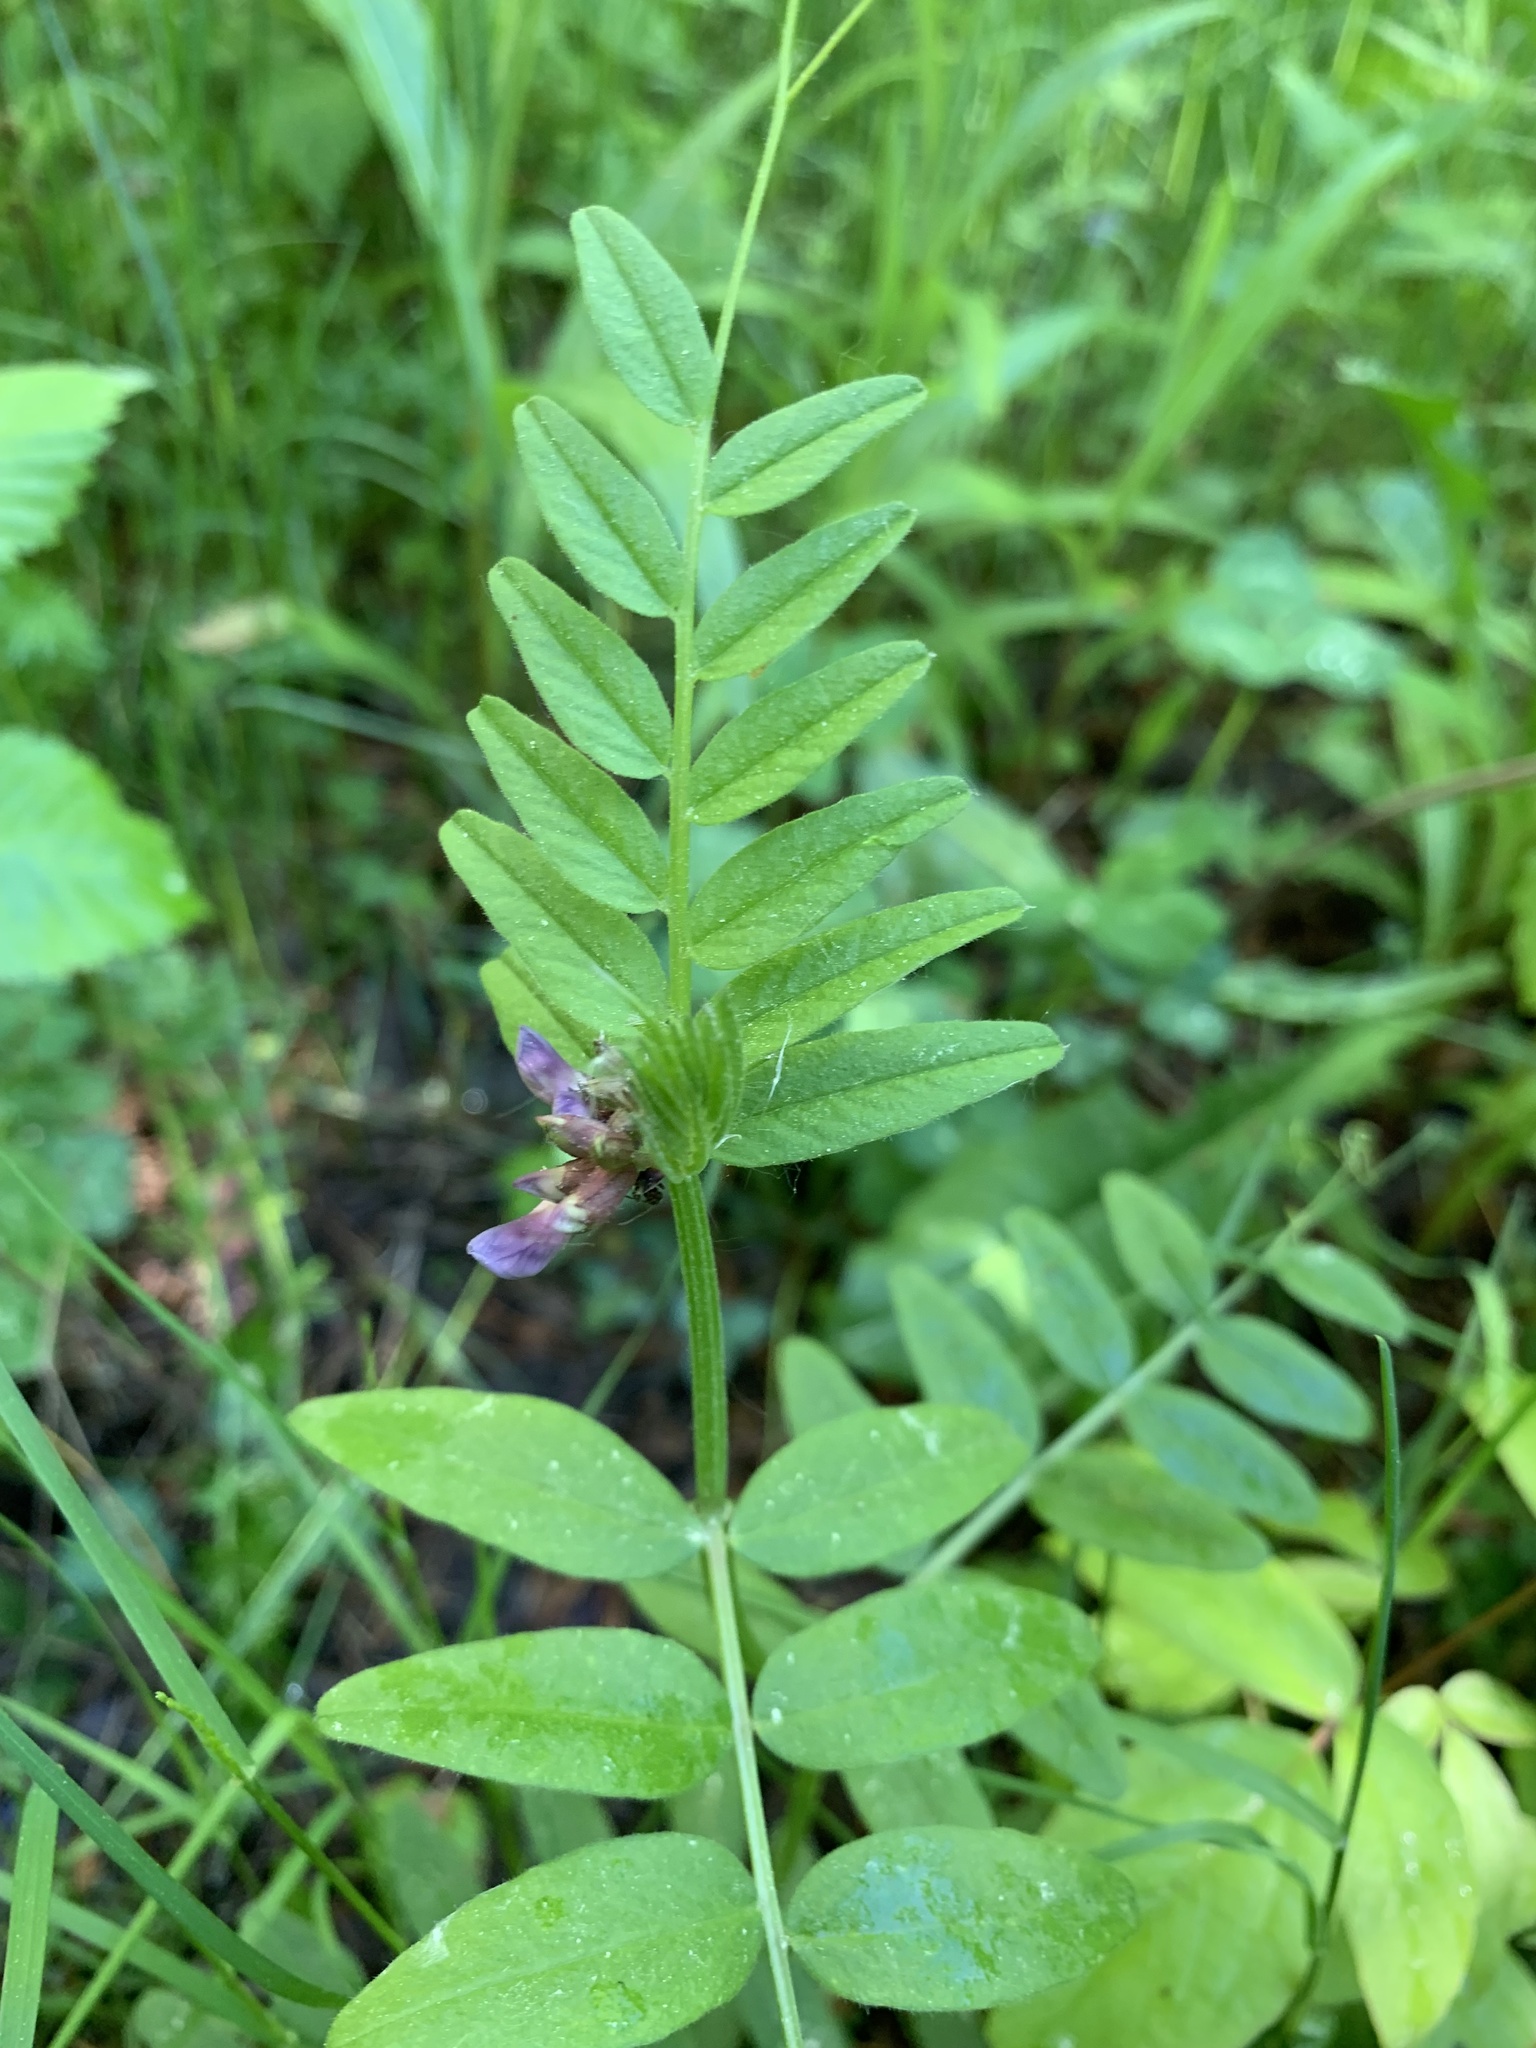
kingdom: Plantae
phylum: Tracheophyta
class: Magnoliopsida
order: Fabales
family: Fabaceae
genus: Vicia
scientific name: Vicia sepium
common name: Bush vetch
